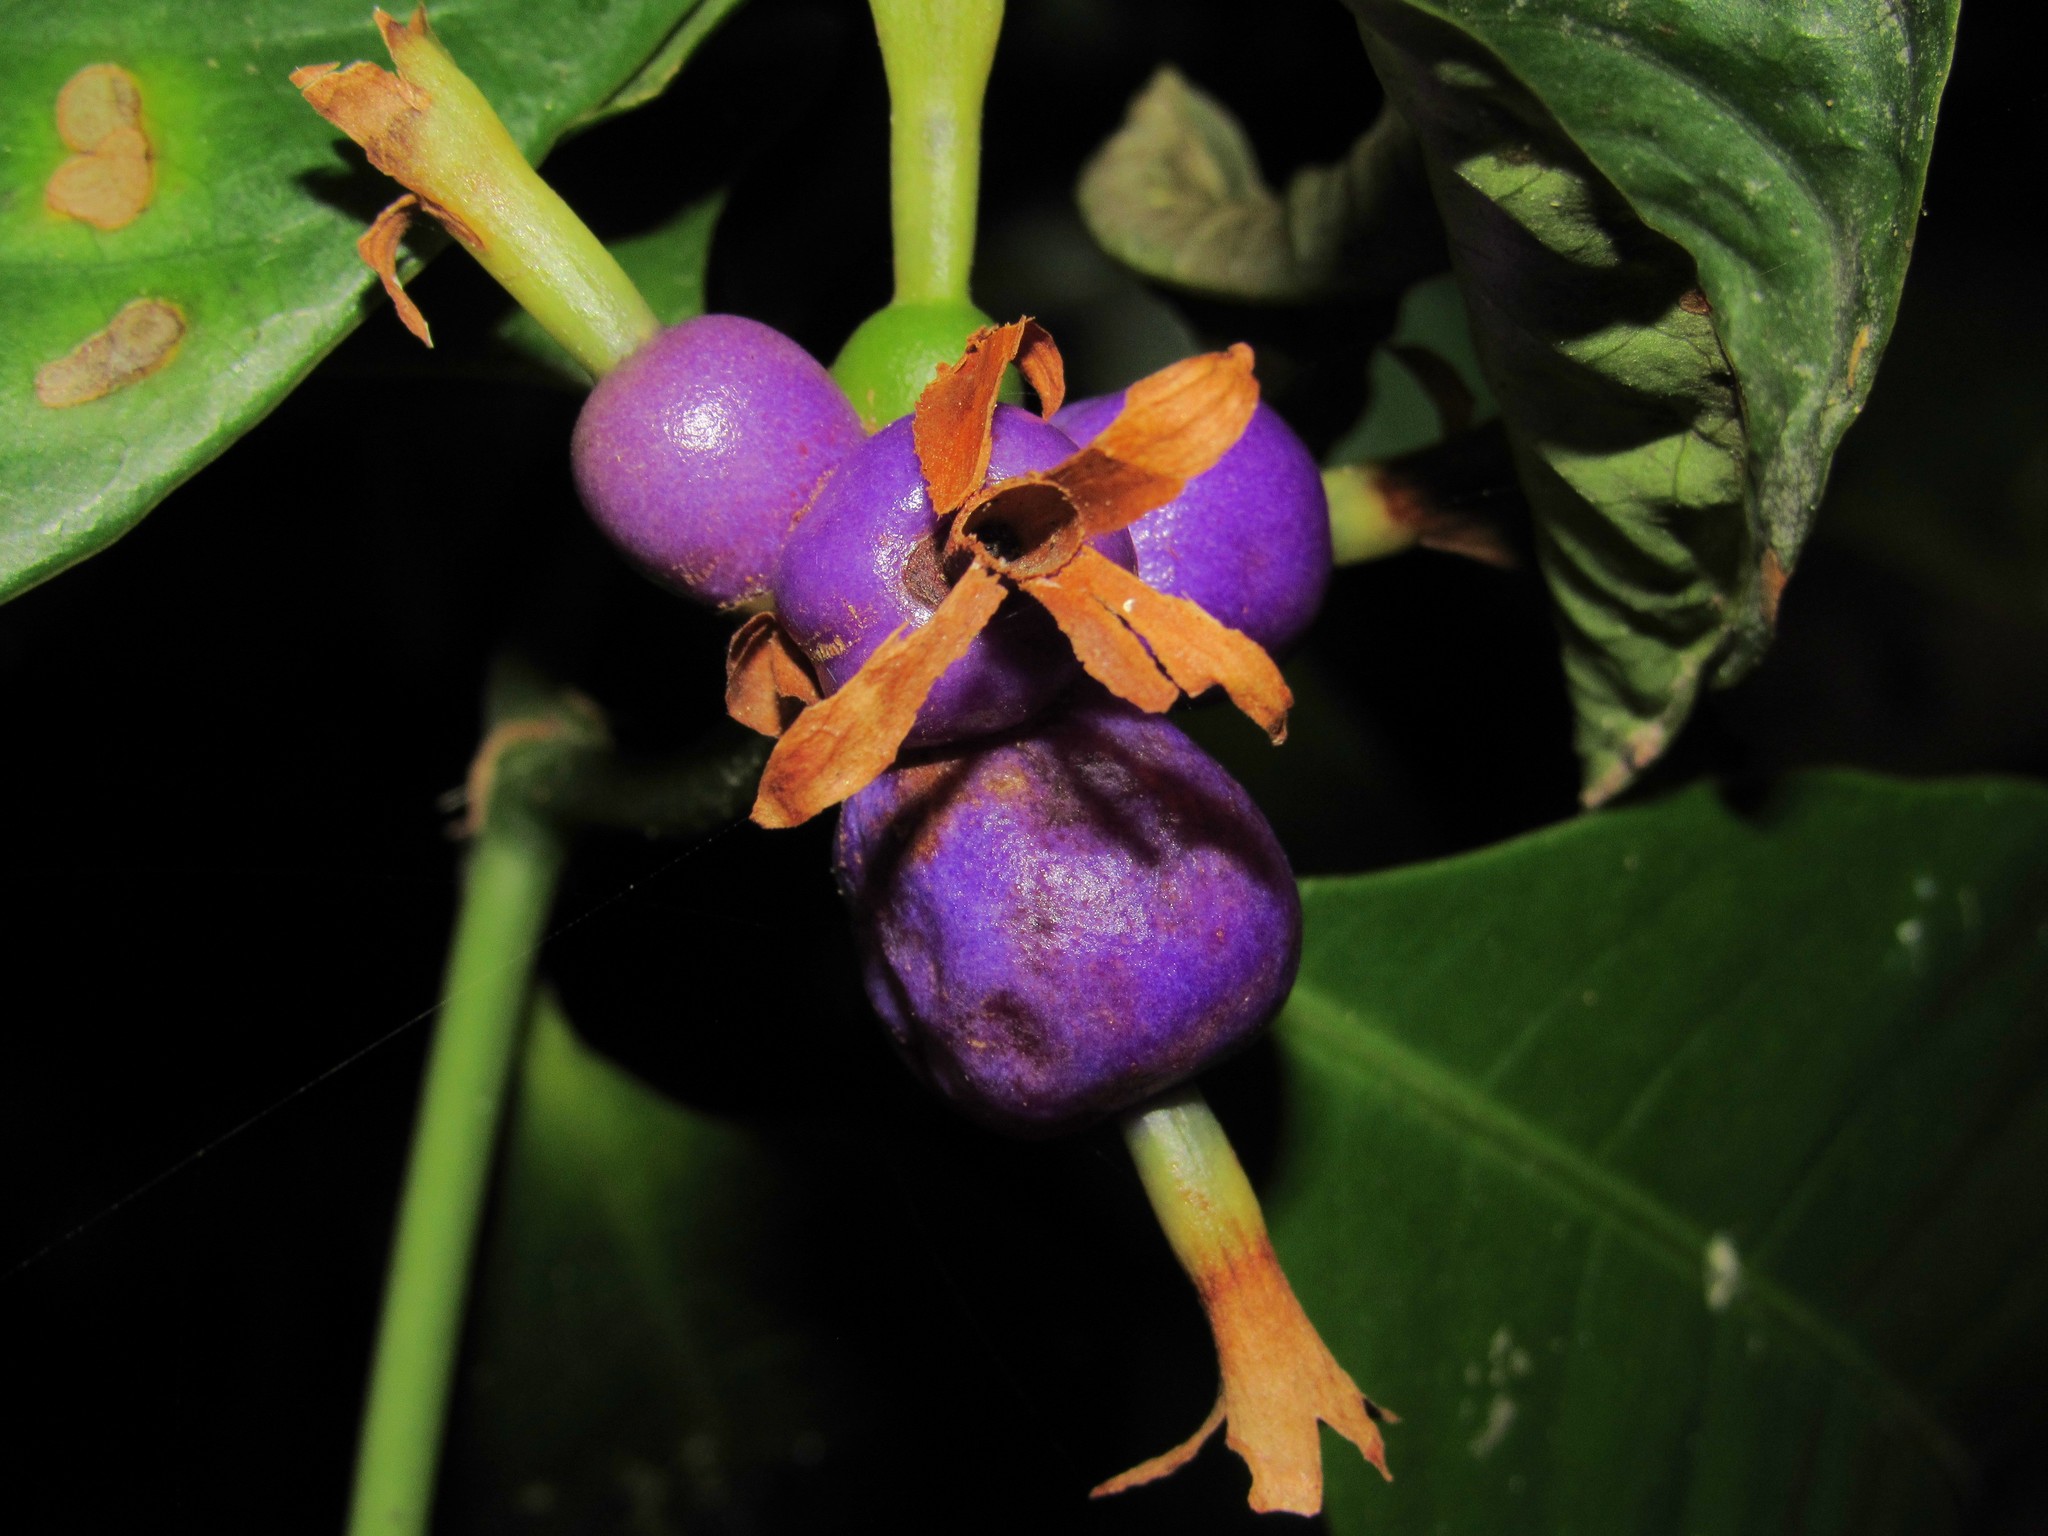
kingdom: Plantae
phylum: Tracheophyta
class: Magnoliopsida
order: Gentianales
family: Rubiaceae
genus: Psychotria
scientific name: Psychotria laciniata
